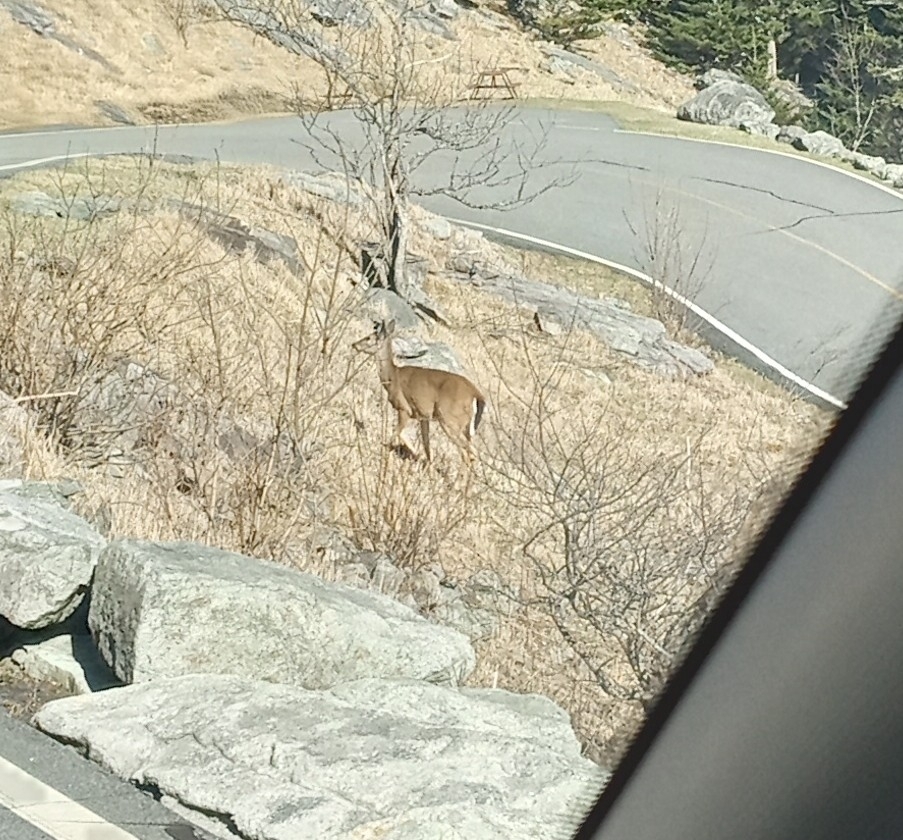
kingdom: Animalia
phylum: Chordata
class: Mammalia
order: Artiodactyla
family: Cervidae
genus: Odocoileus
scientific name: Odocoileus virginianus
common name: White-tailed deer
